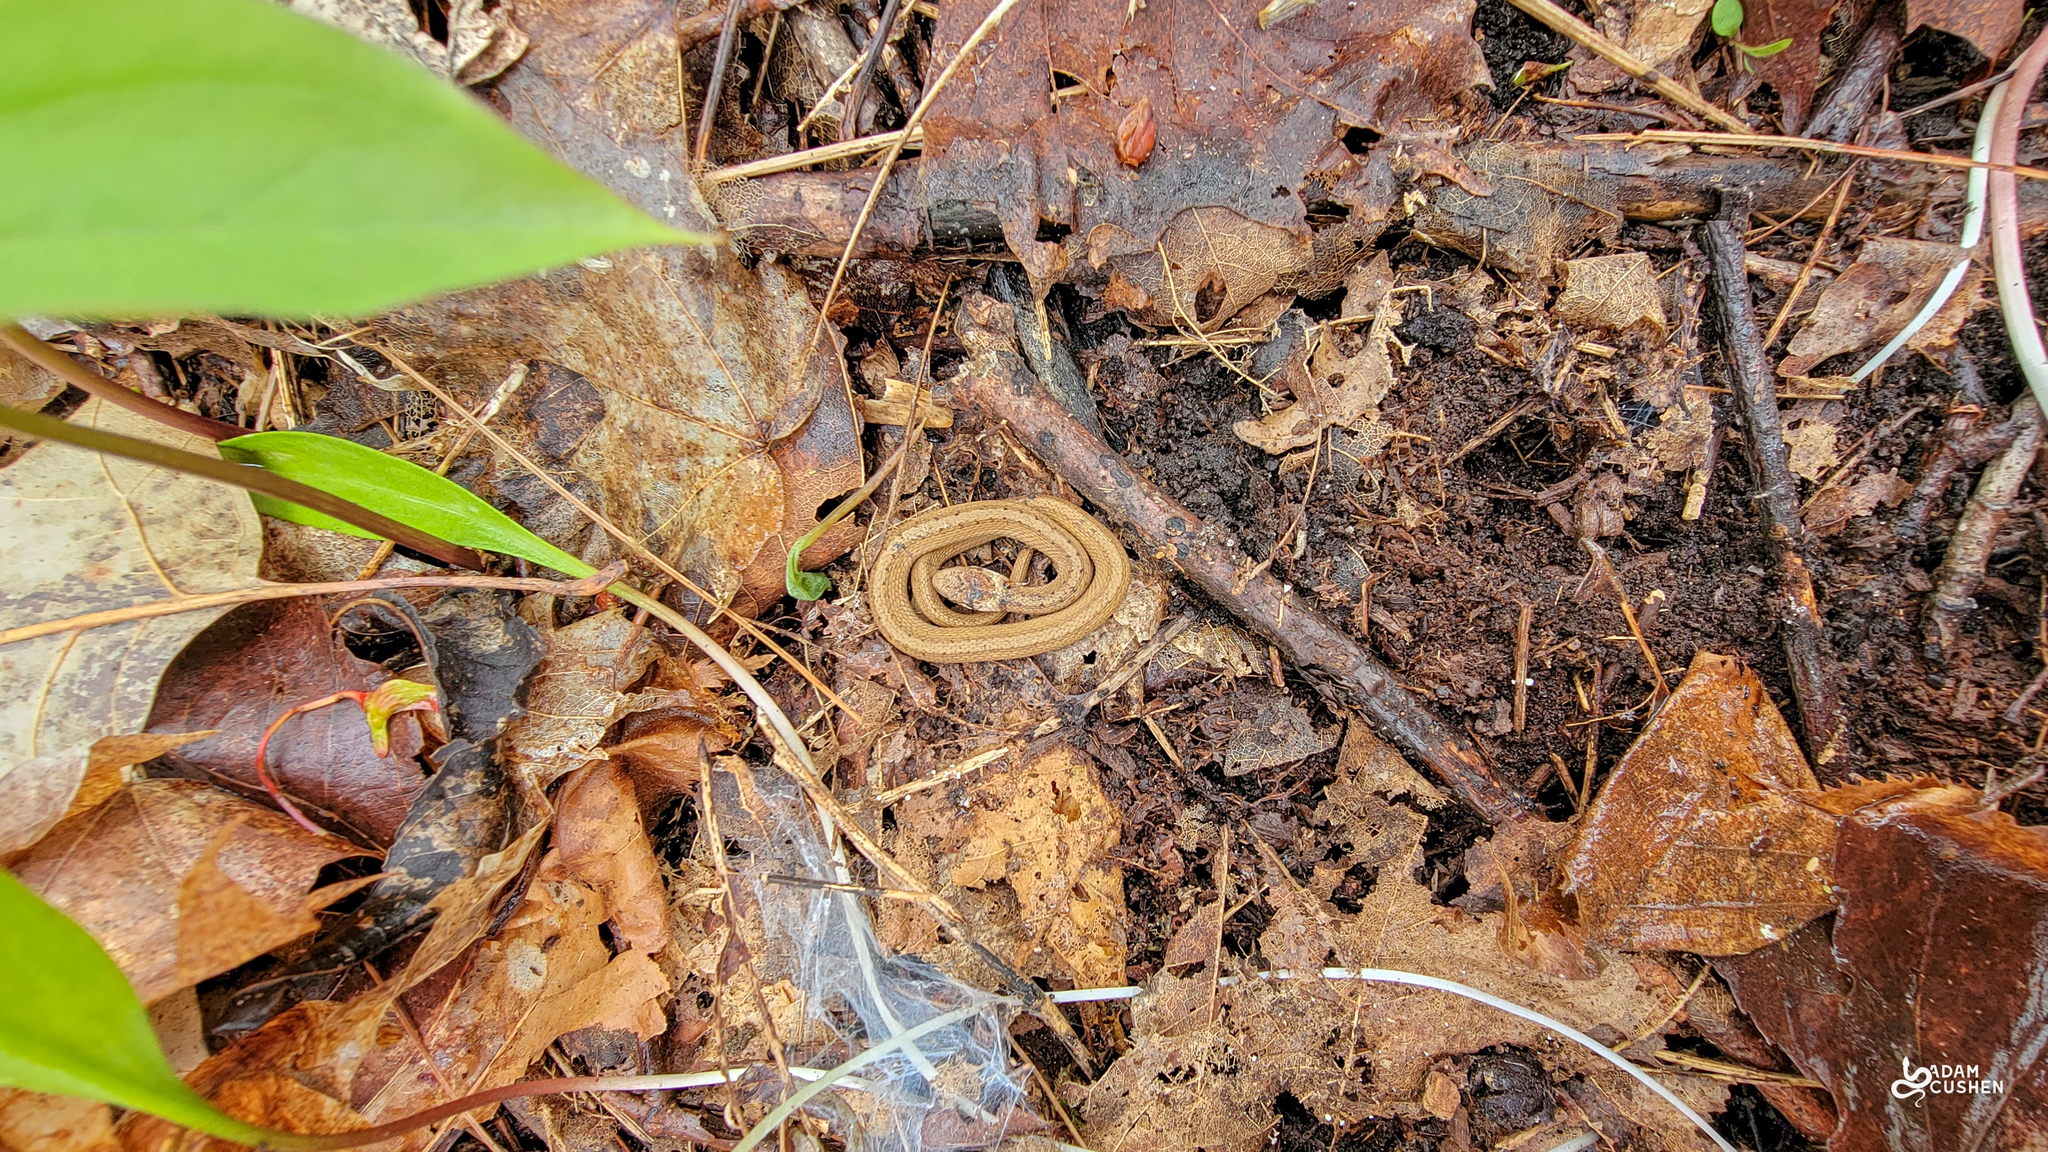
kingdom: Animalia
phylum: Chordata
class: Squamata
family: Colubridae
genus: Storeria
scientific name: Storeria dekayi
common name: (dekay’s) brown snake
